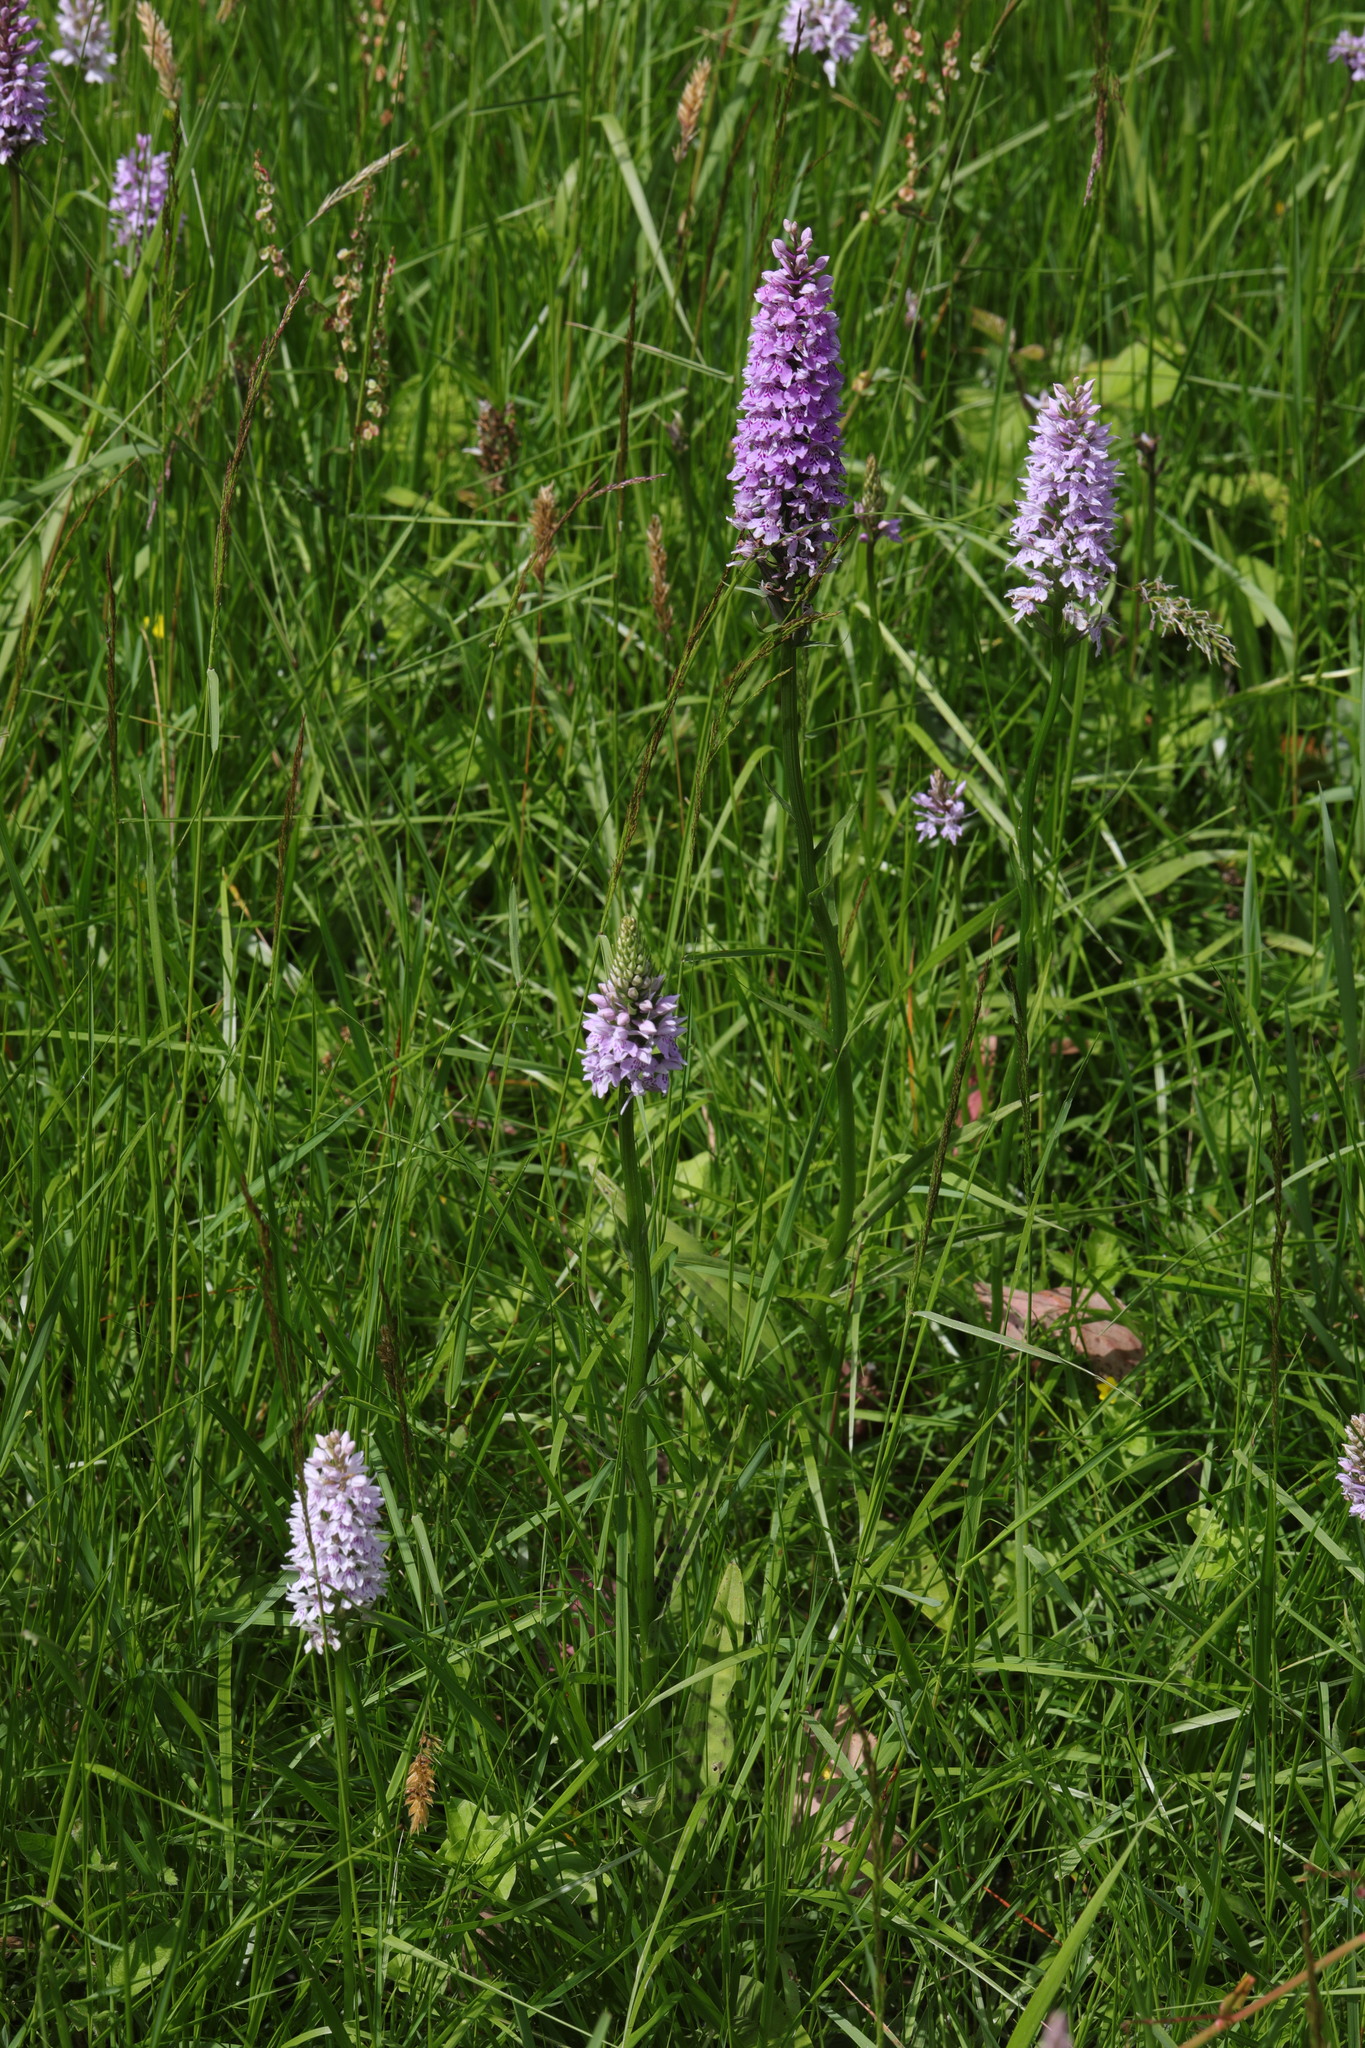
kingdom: Plantae
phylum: Tracheophyta
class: Liliopsida
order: Asparagales
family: Orchidaceae
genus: Dactylorhiza
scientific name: Dactylorhiza maculata
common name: Heath spotted-orchid
